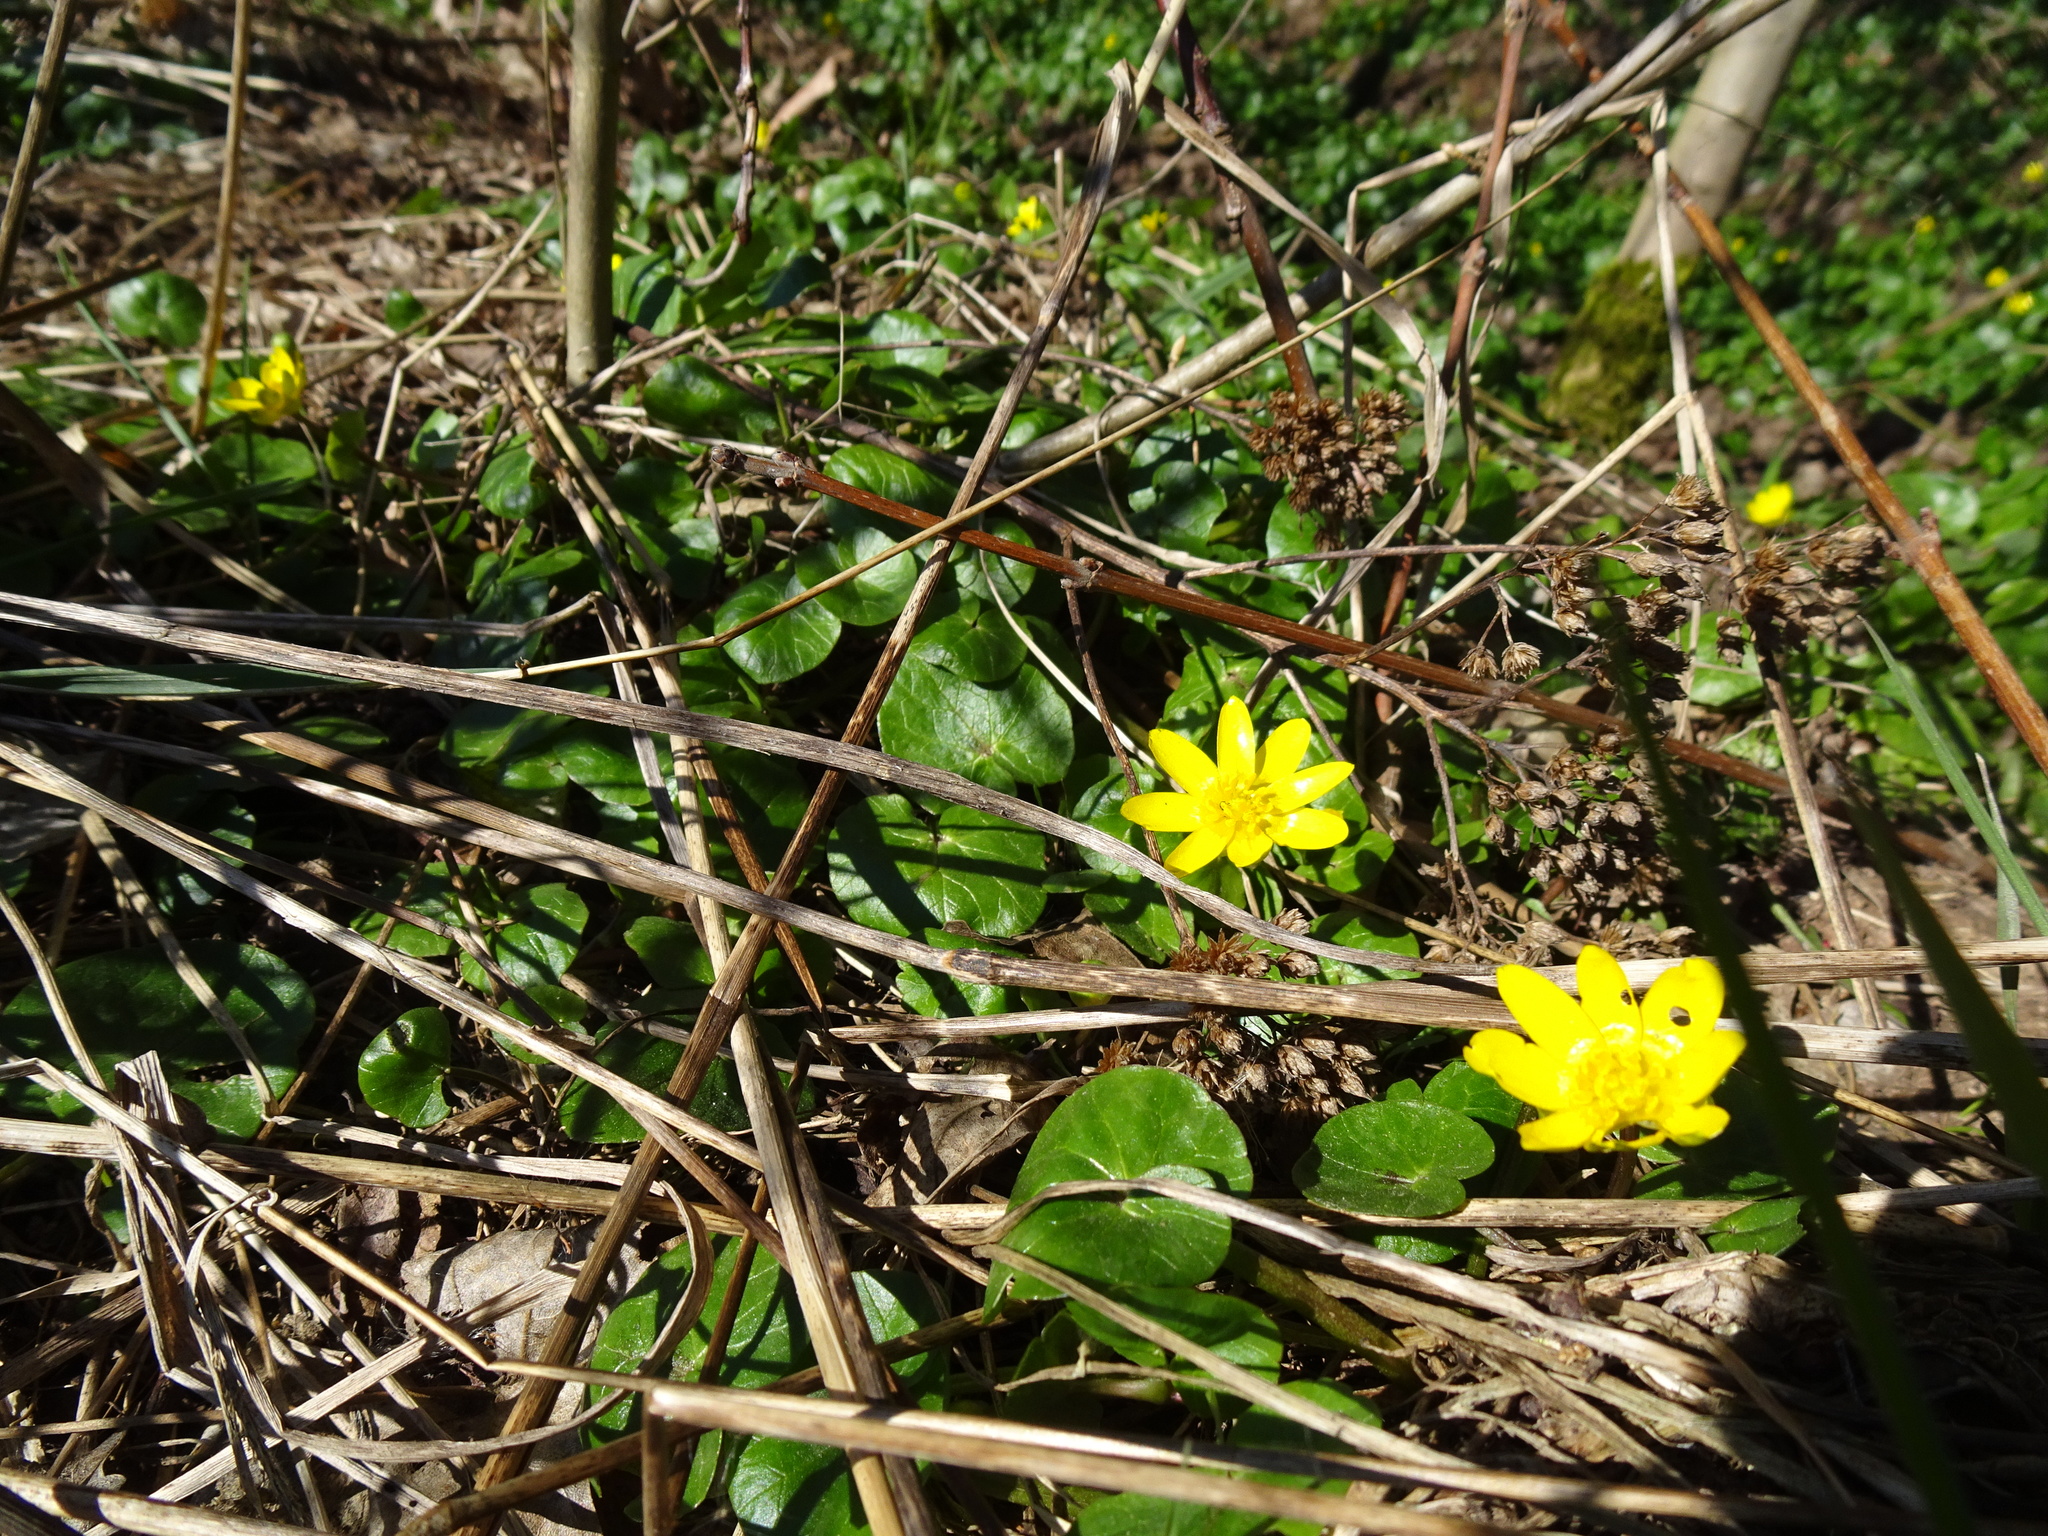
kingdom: Plantae
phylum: Tracheophyta
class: Magnoliopsida
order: Ranunculales
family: Ranunculaceae
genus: Ficaria
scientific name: Ficaria verna
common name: Lesser celandine
